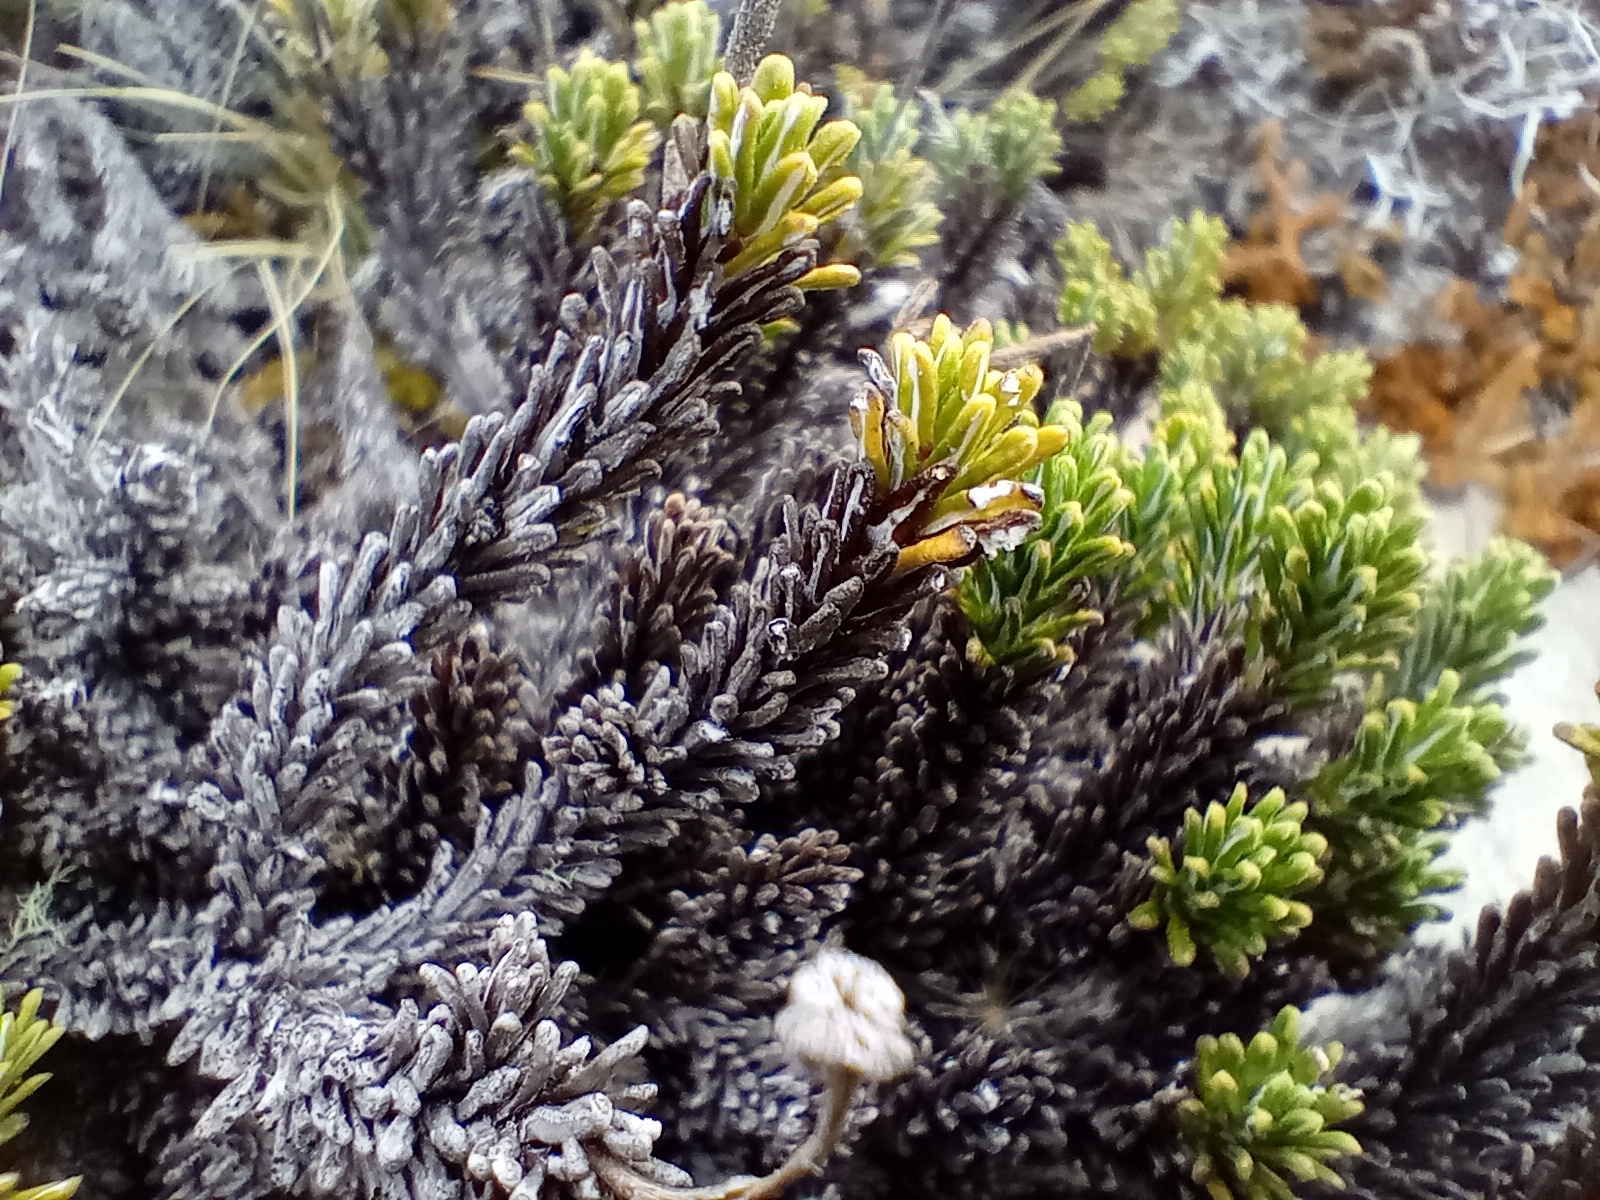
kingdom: Plantae
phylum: Tracheophyta
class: Magnoliopsida
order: Asterales
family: Asteraceae
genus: Celmisia
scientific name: Celmisia ramulosa
